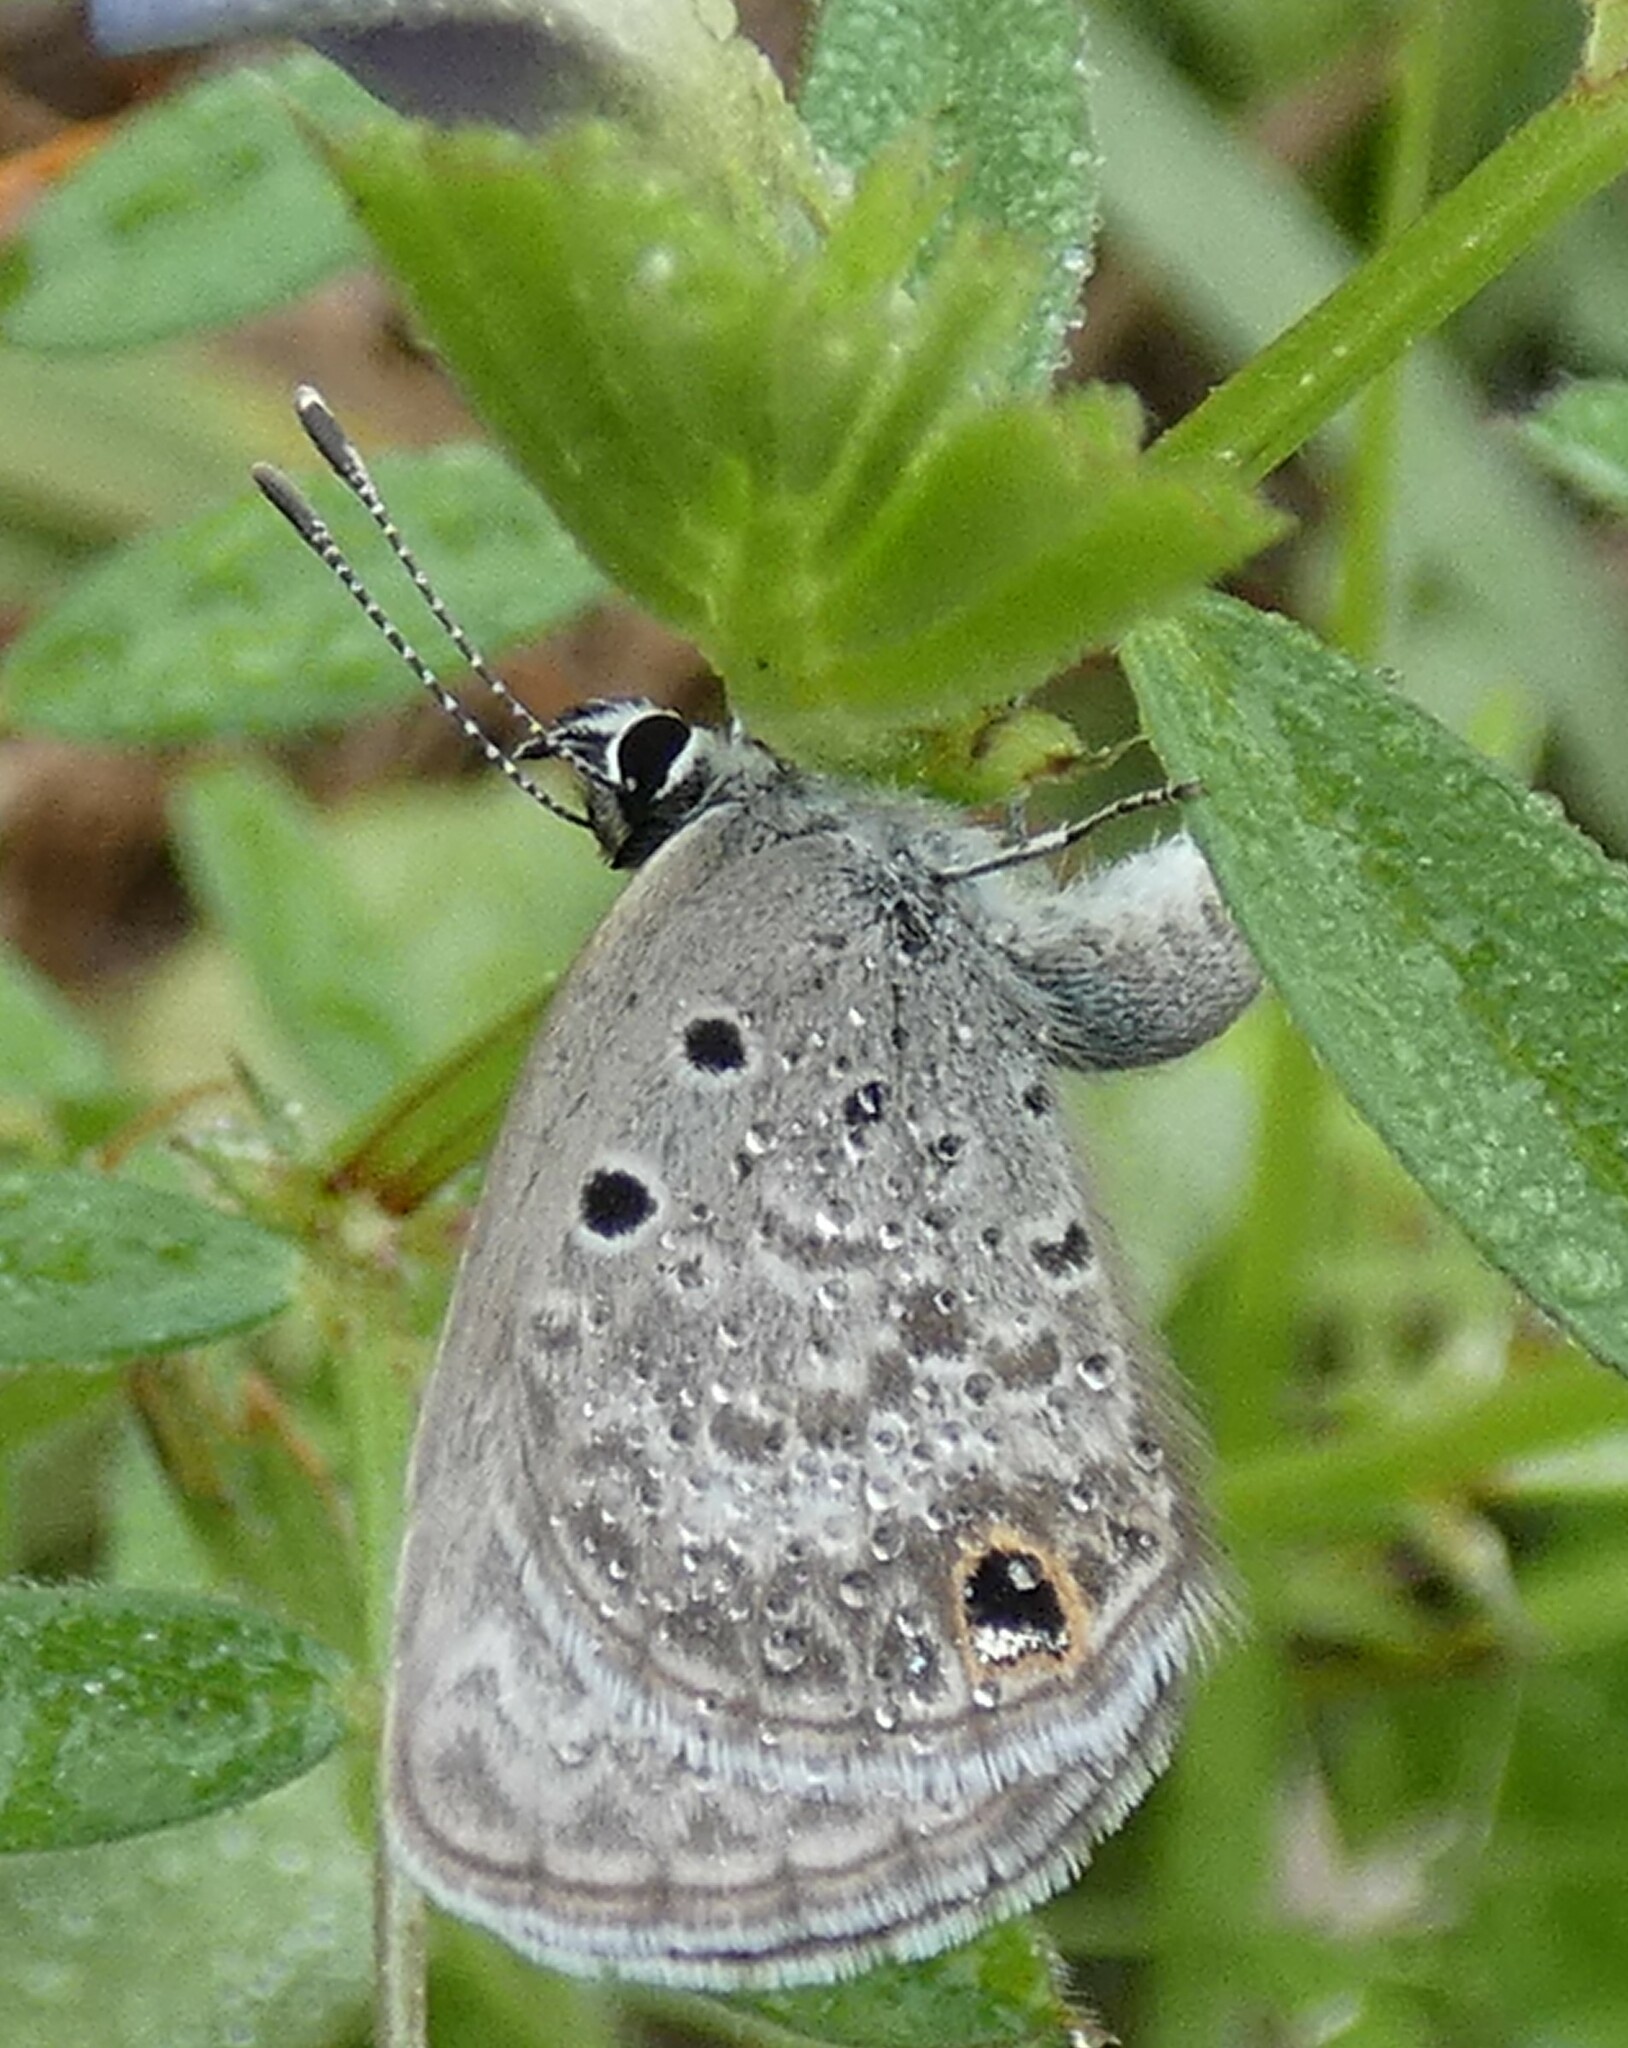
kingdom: Animalia
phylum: Arthropoda
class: Insecta
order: Lepidoptera
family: Lycaenidae
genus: Hemiargus
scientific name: Hemiargus ceraunus
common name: Ceraunus blue
